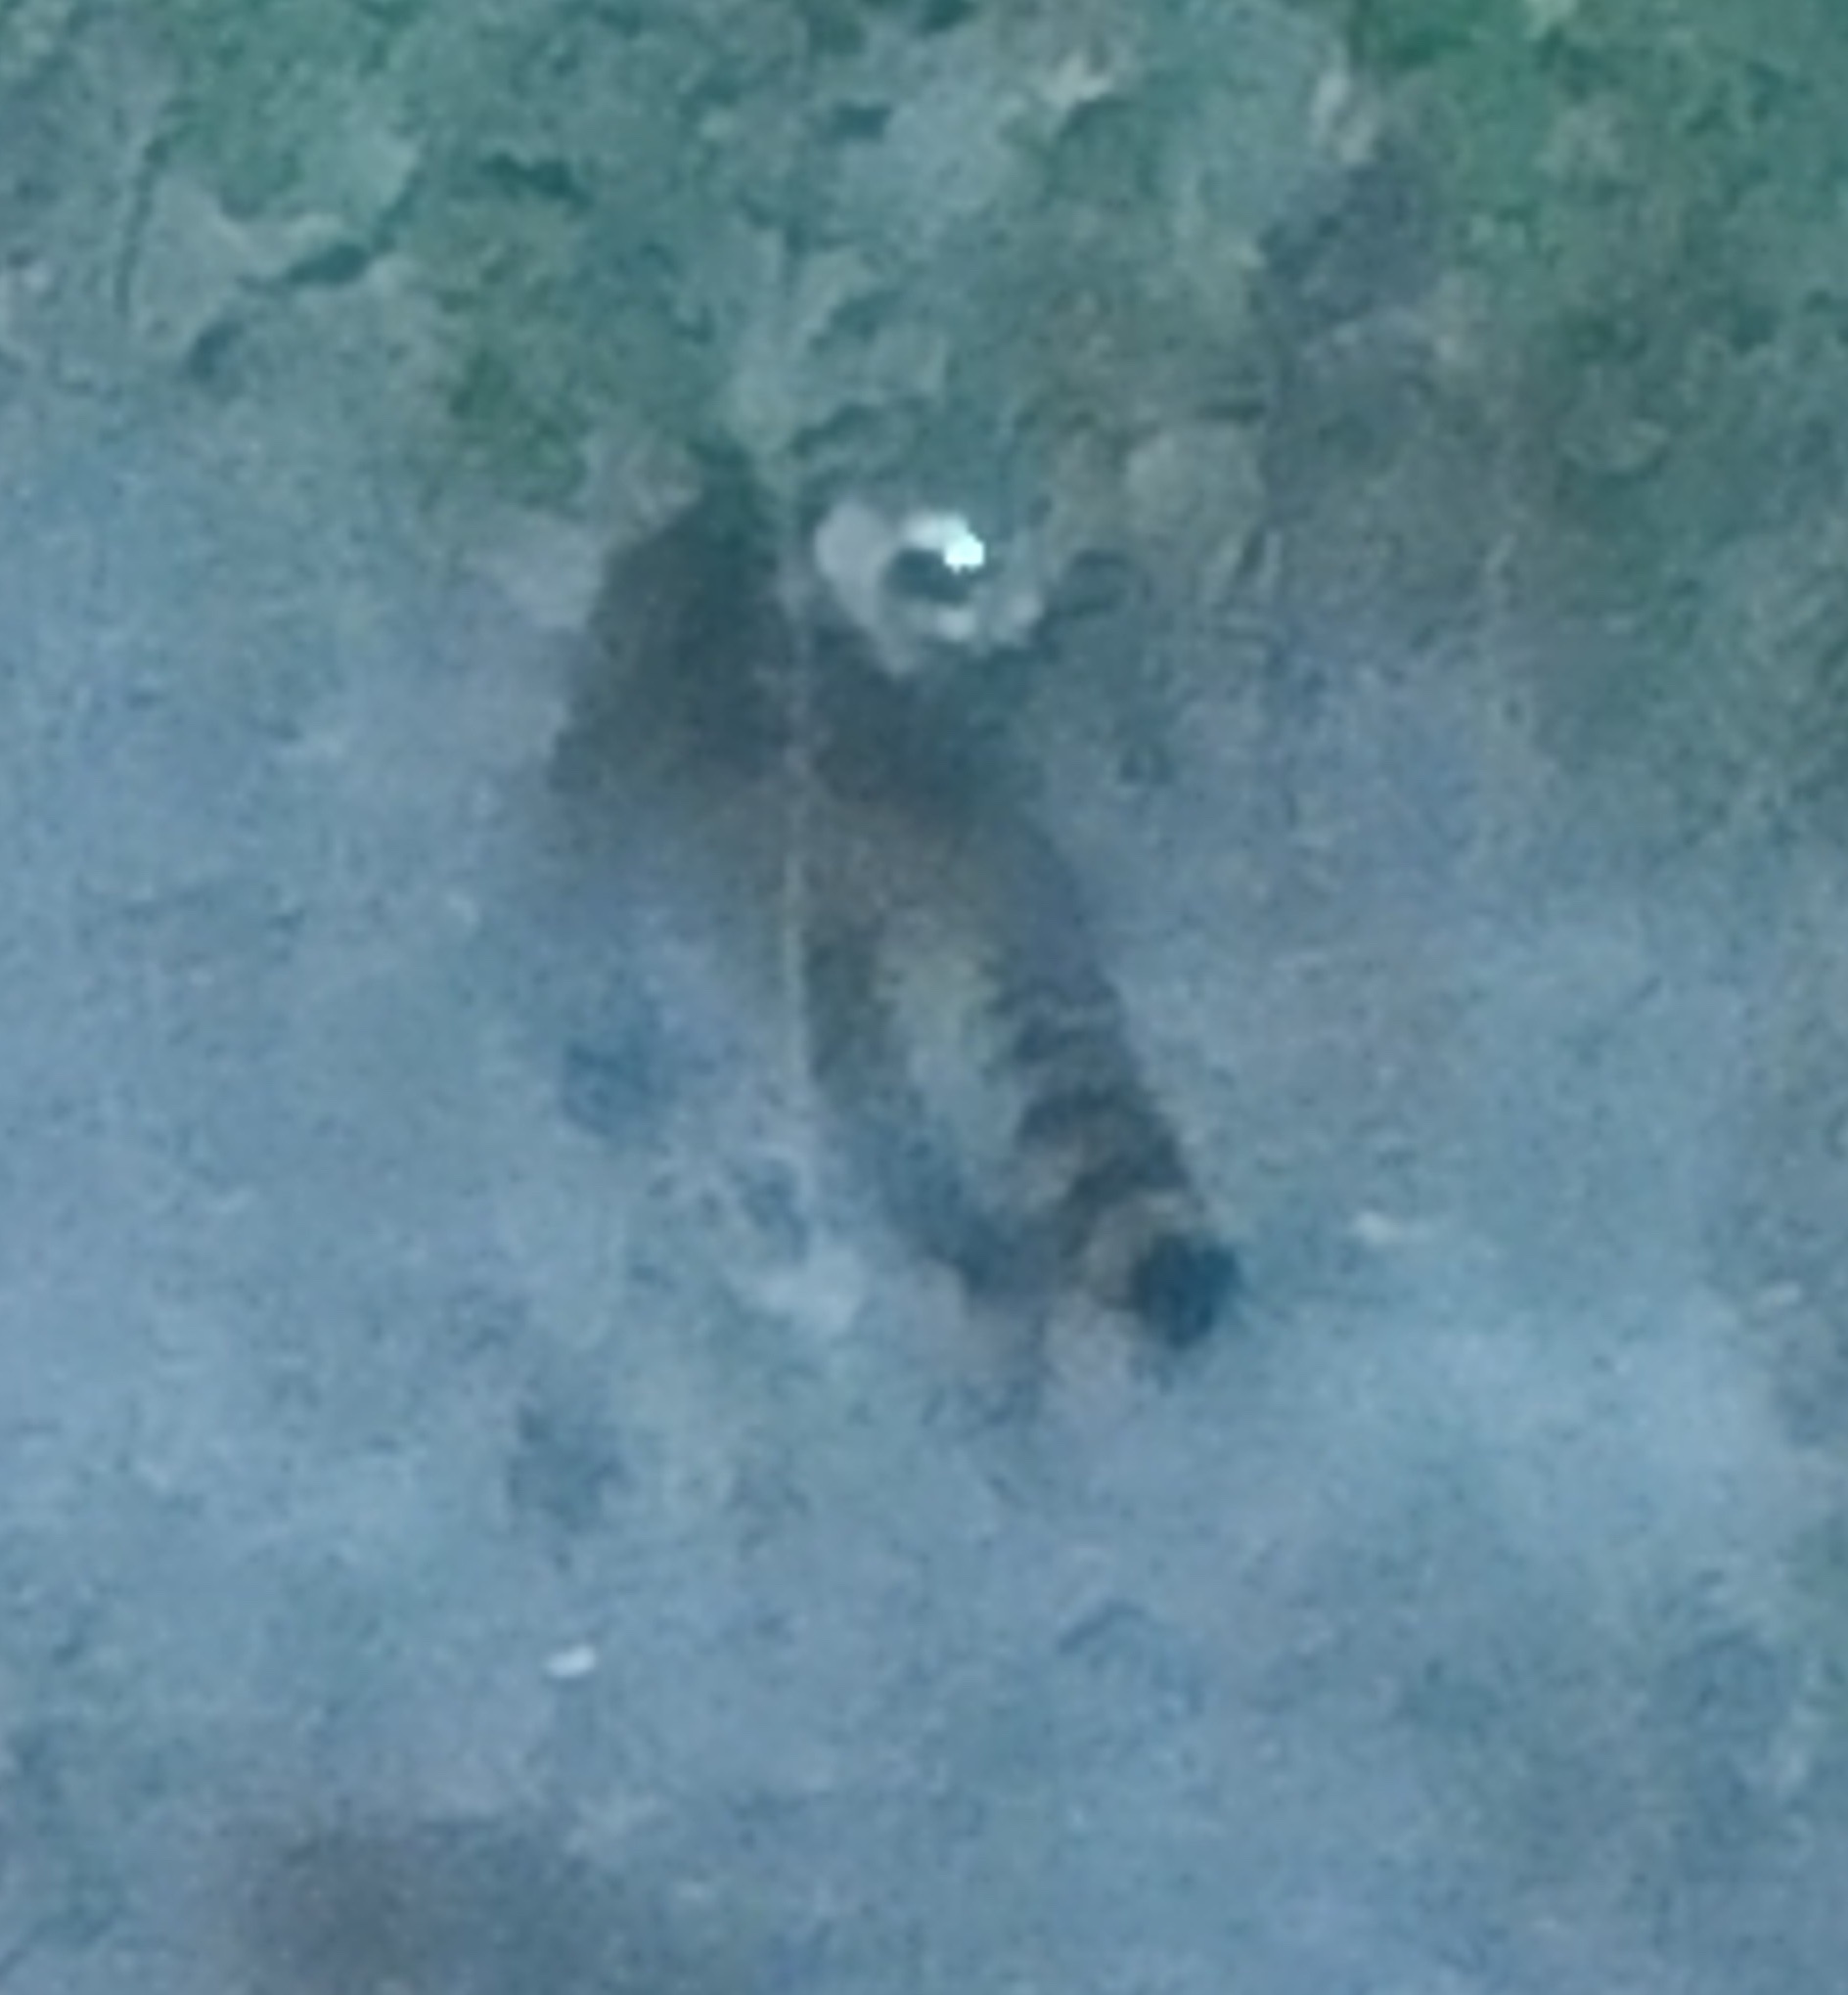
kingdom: Animalia
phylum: Chordata
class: Mammalia
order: Carnivora
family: Procyonidae
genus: Procyon
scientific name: Procyon lotor
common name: Raccoon
